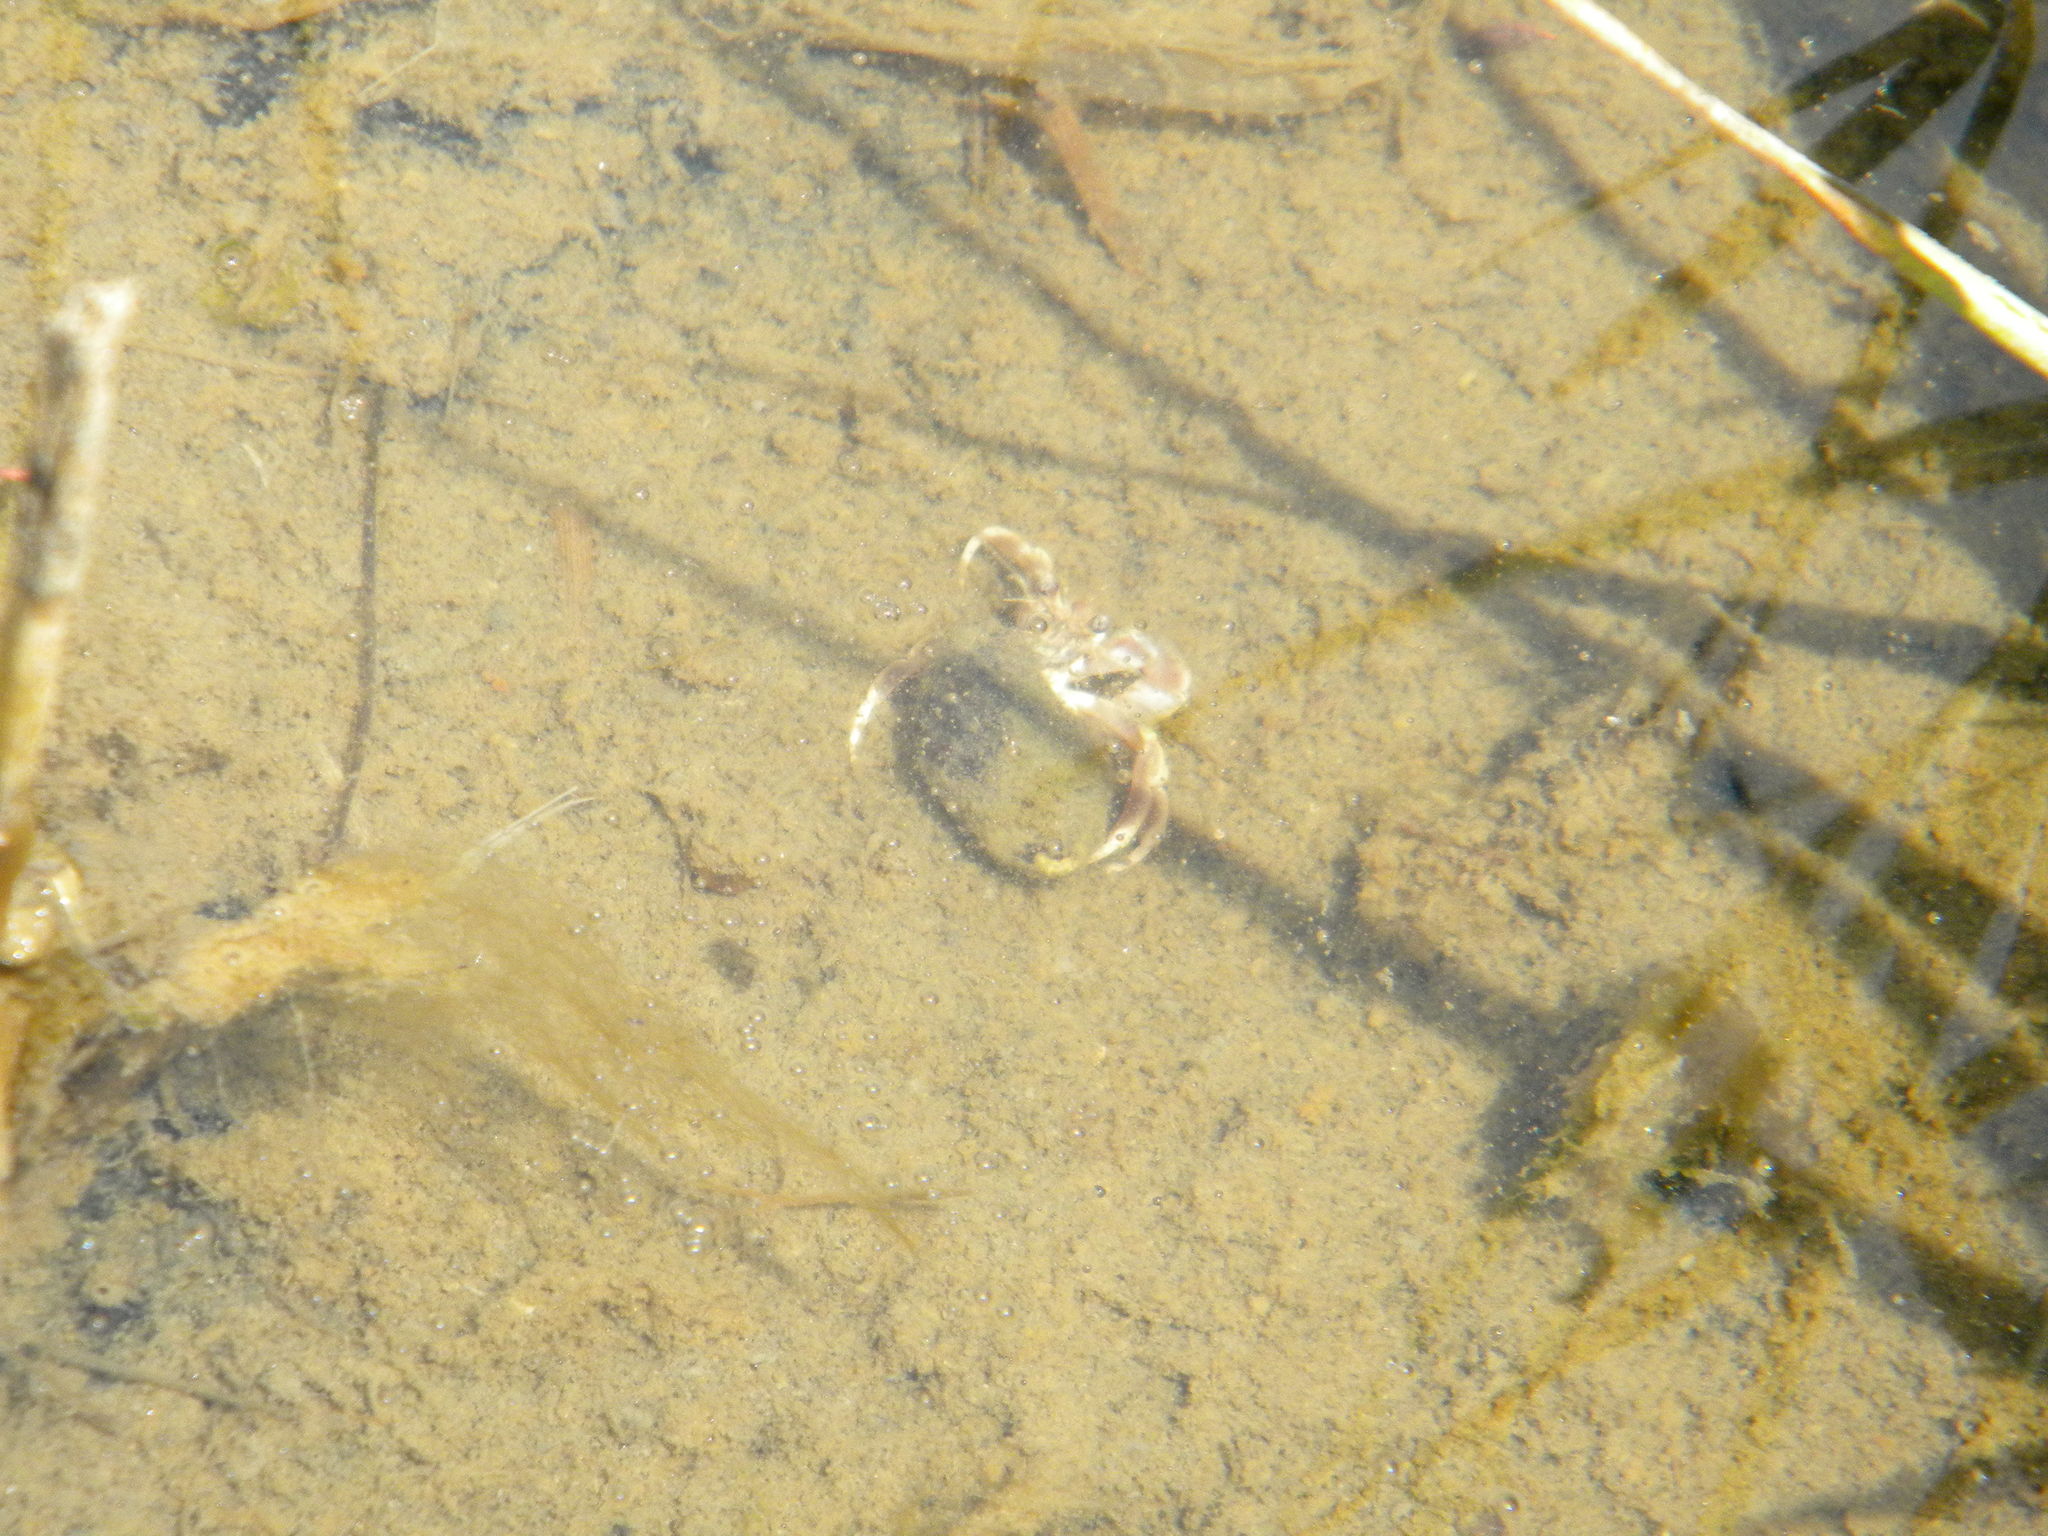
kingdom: Animalia
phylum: Arthropoda
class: Malacostraca
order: Decapoda
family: Paguridae
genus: Pagurus
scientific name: Pagurus longicarpus
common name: Long-armed hermit crab
